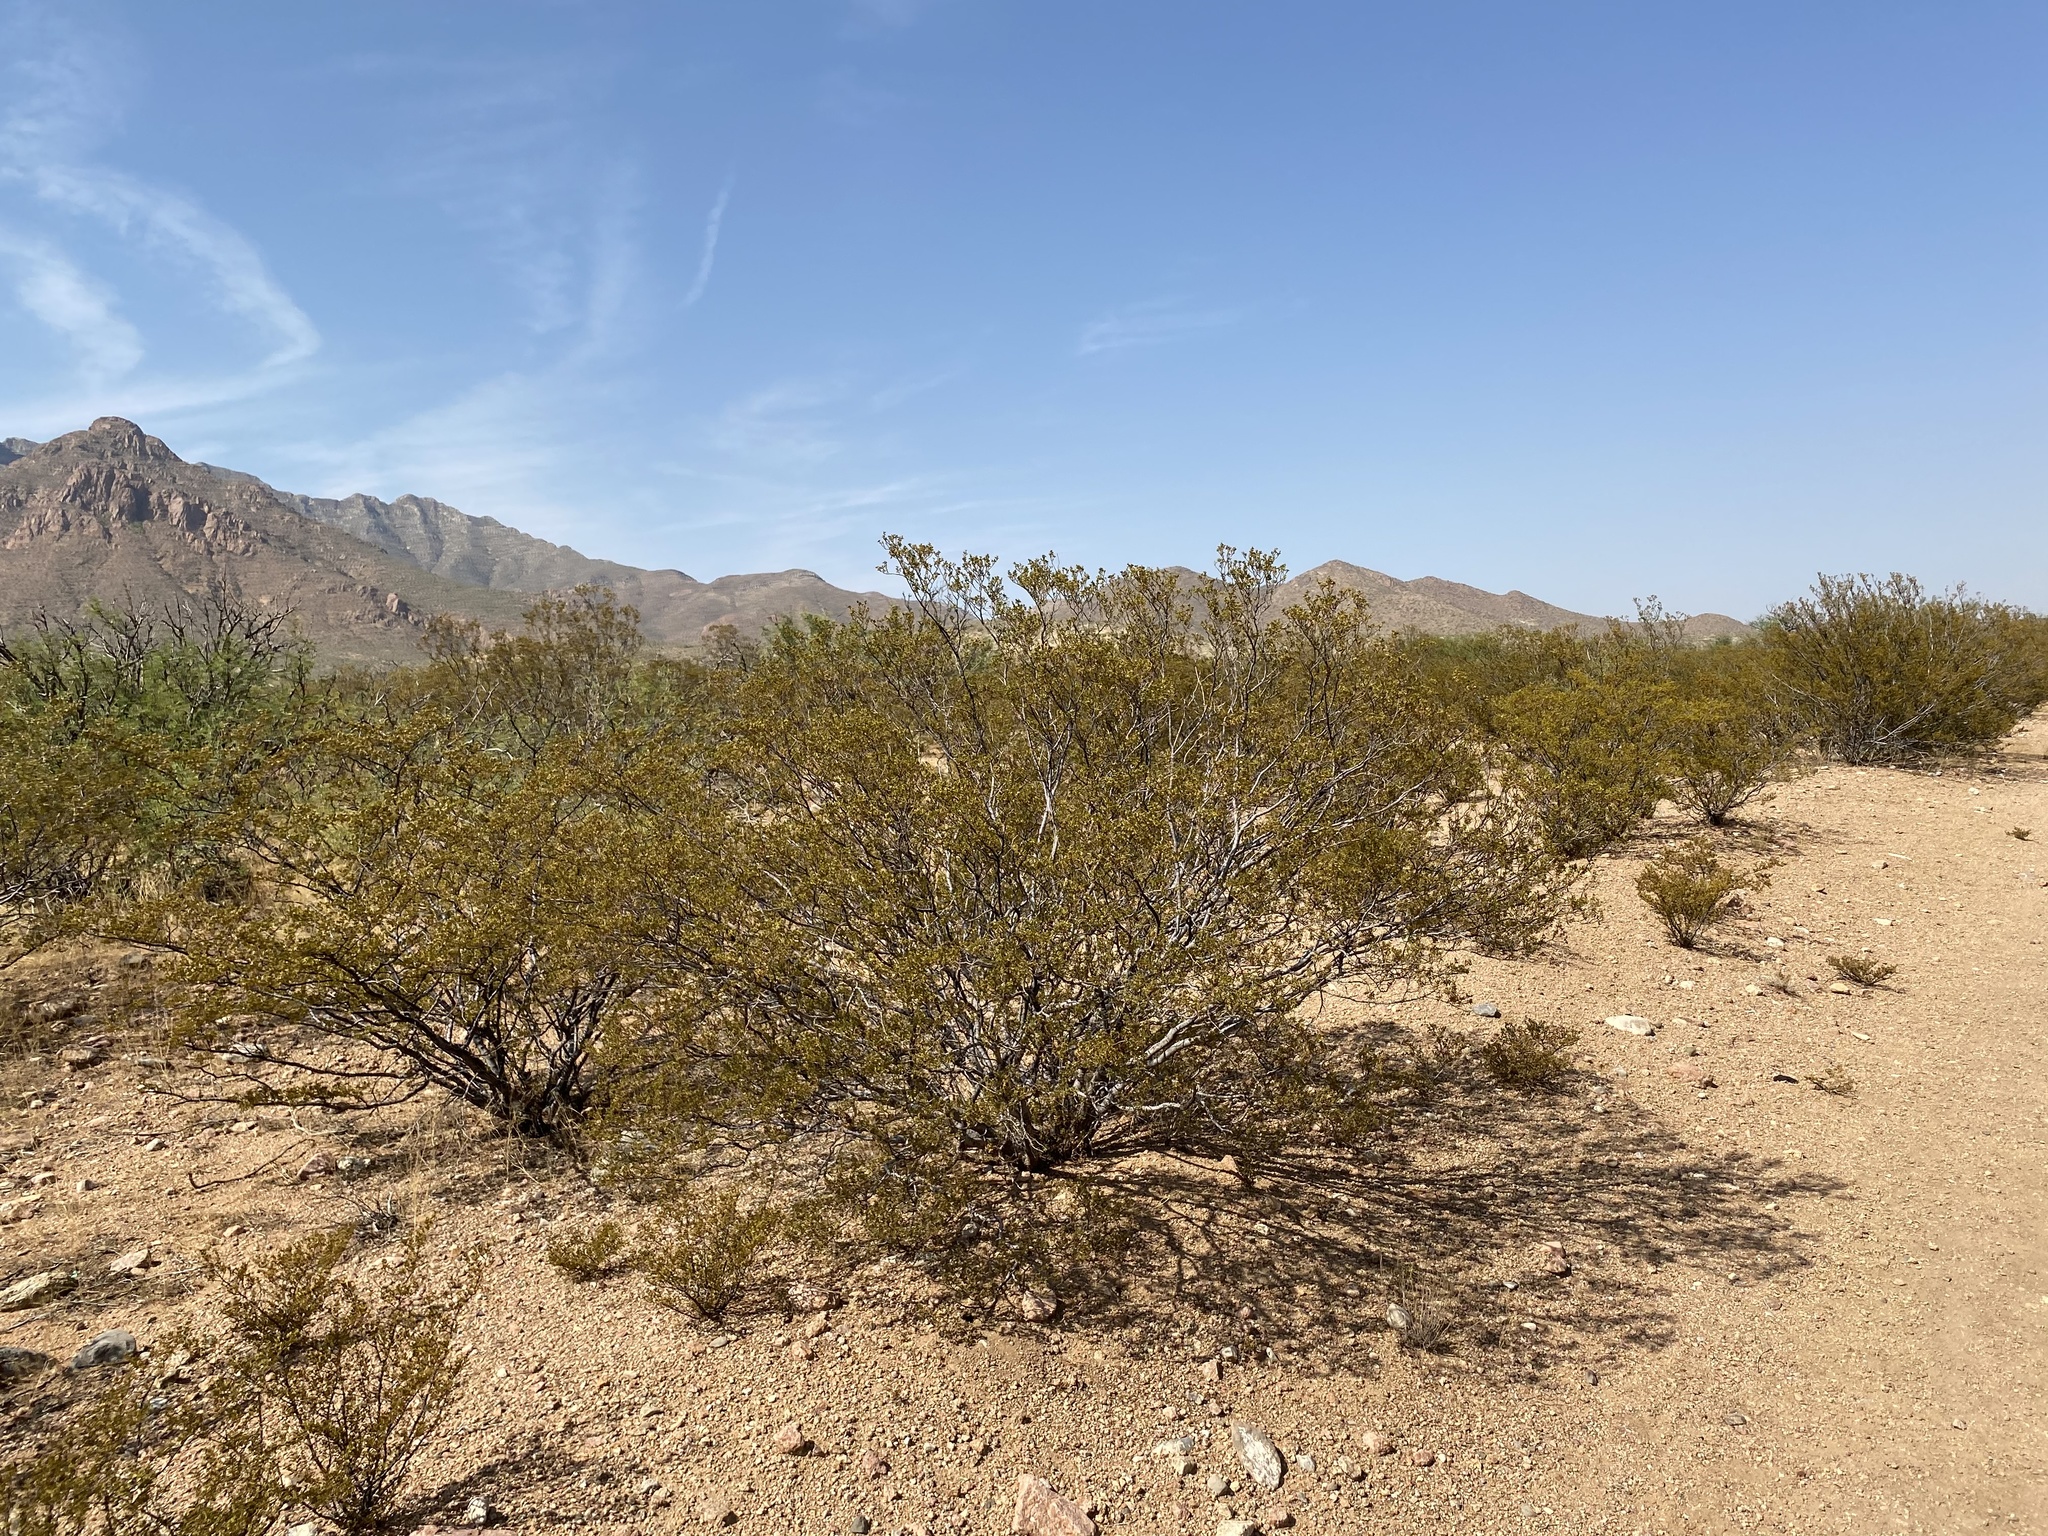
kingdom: Plantae
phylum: Tracheophyta
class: Magnoliopsida
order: Zygophyllales
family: Zygophyllaceae
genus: Larrea
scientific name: Larrea tridentata
